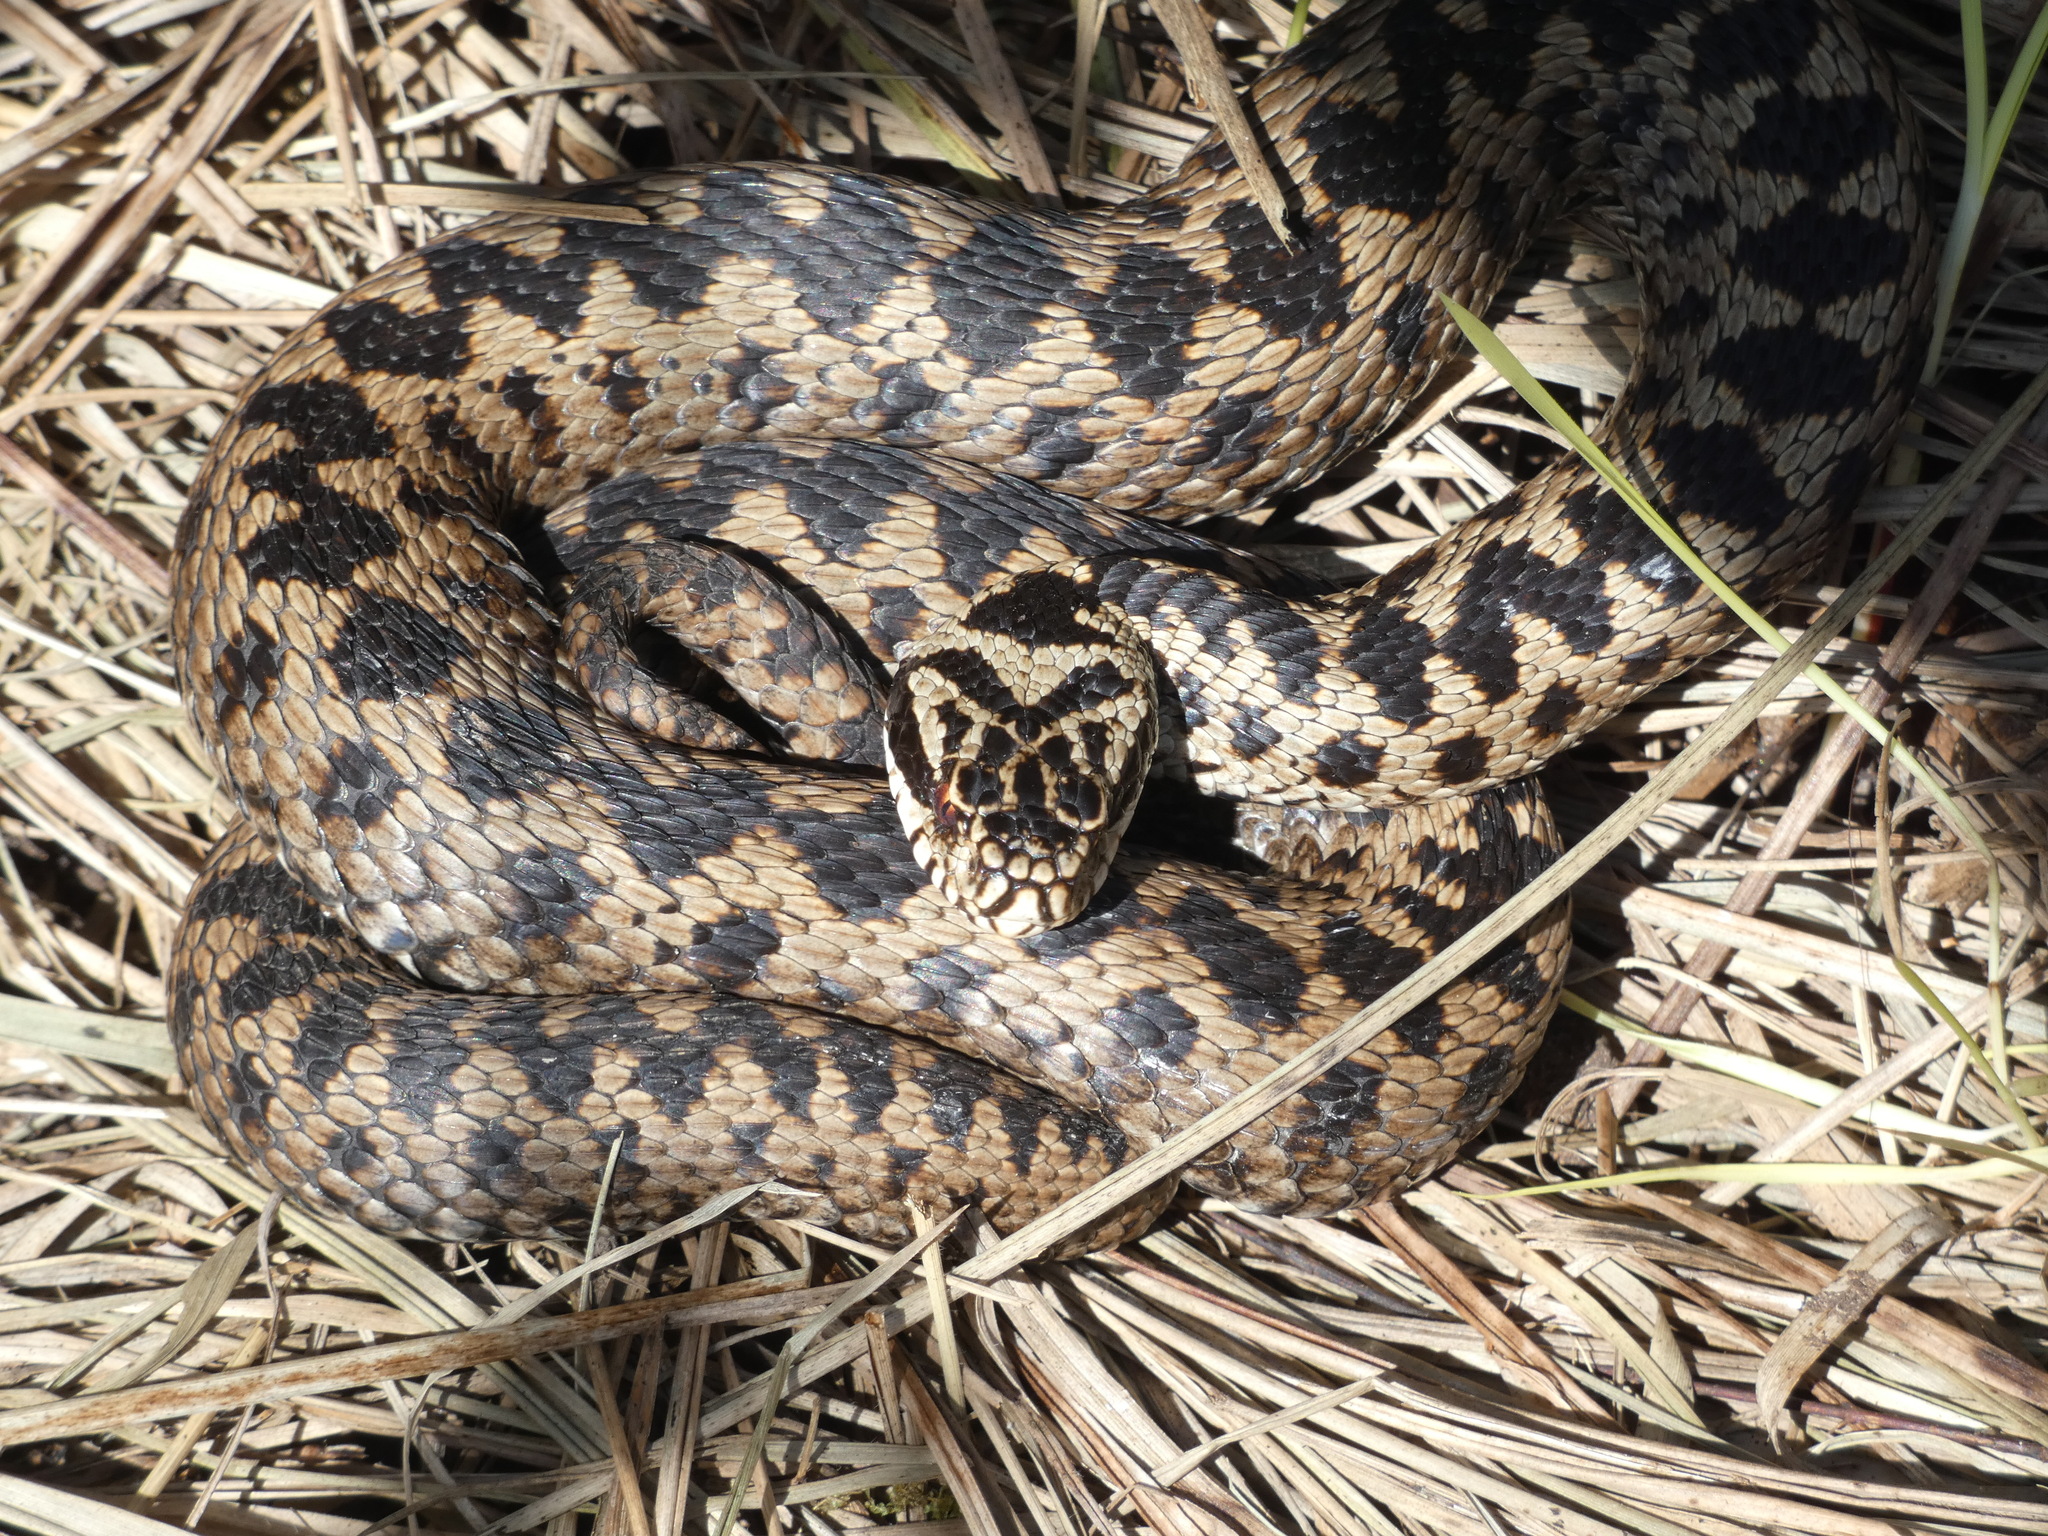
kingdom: Animalia
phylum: Chordata
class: Squamata
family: Viperidae
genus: Vipera
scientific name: Vipera berus
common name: Adder
